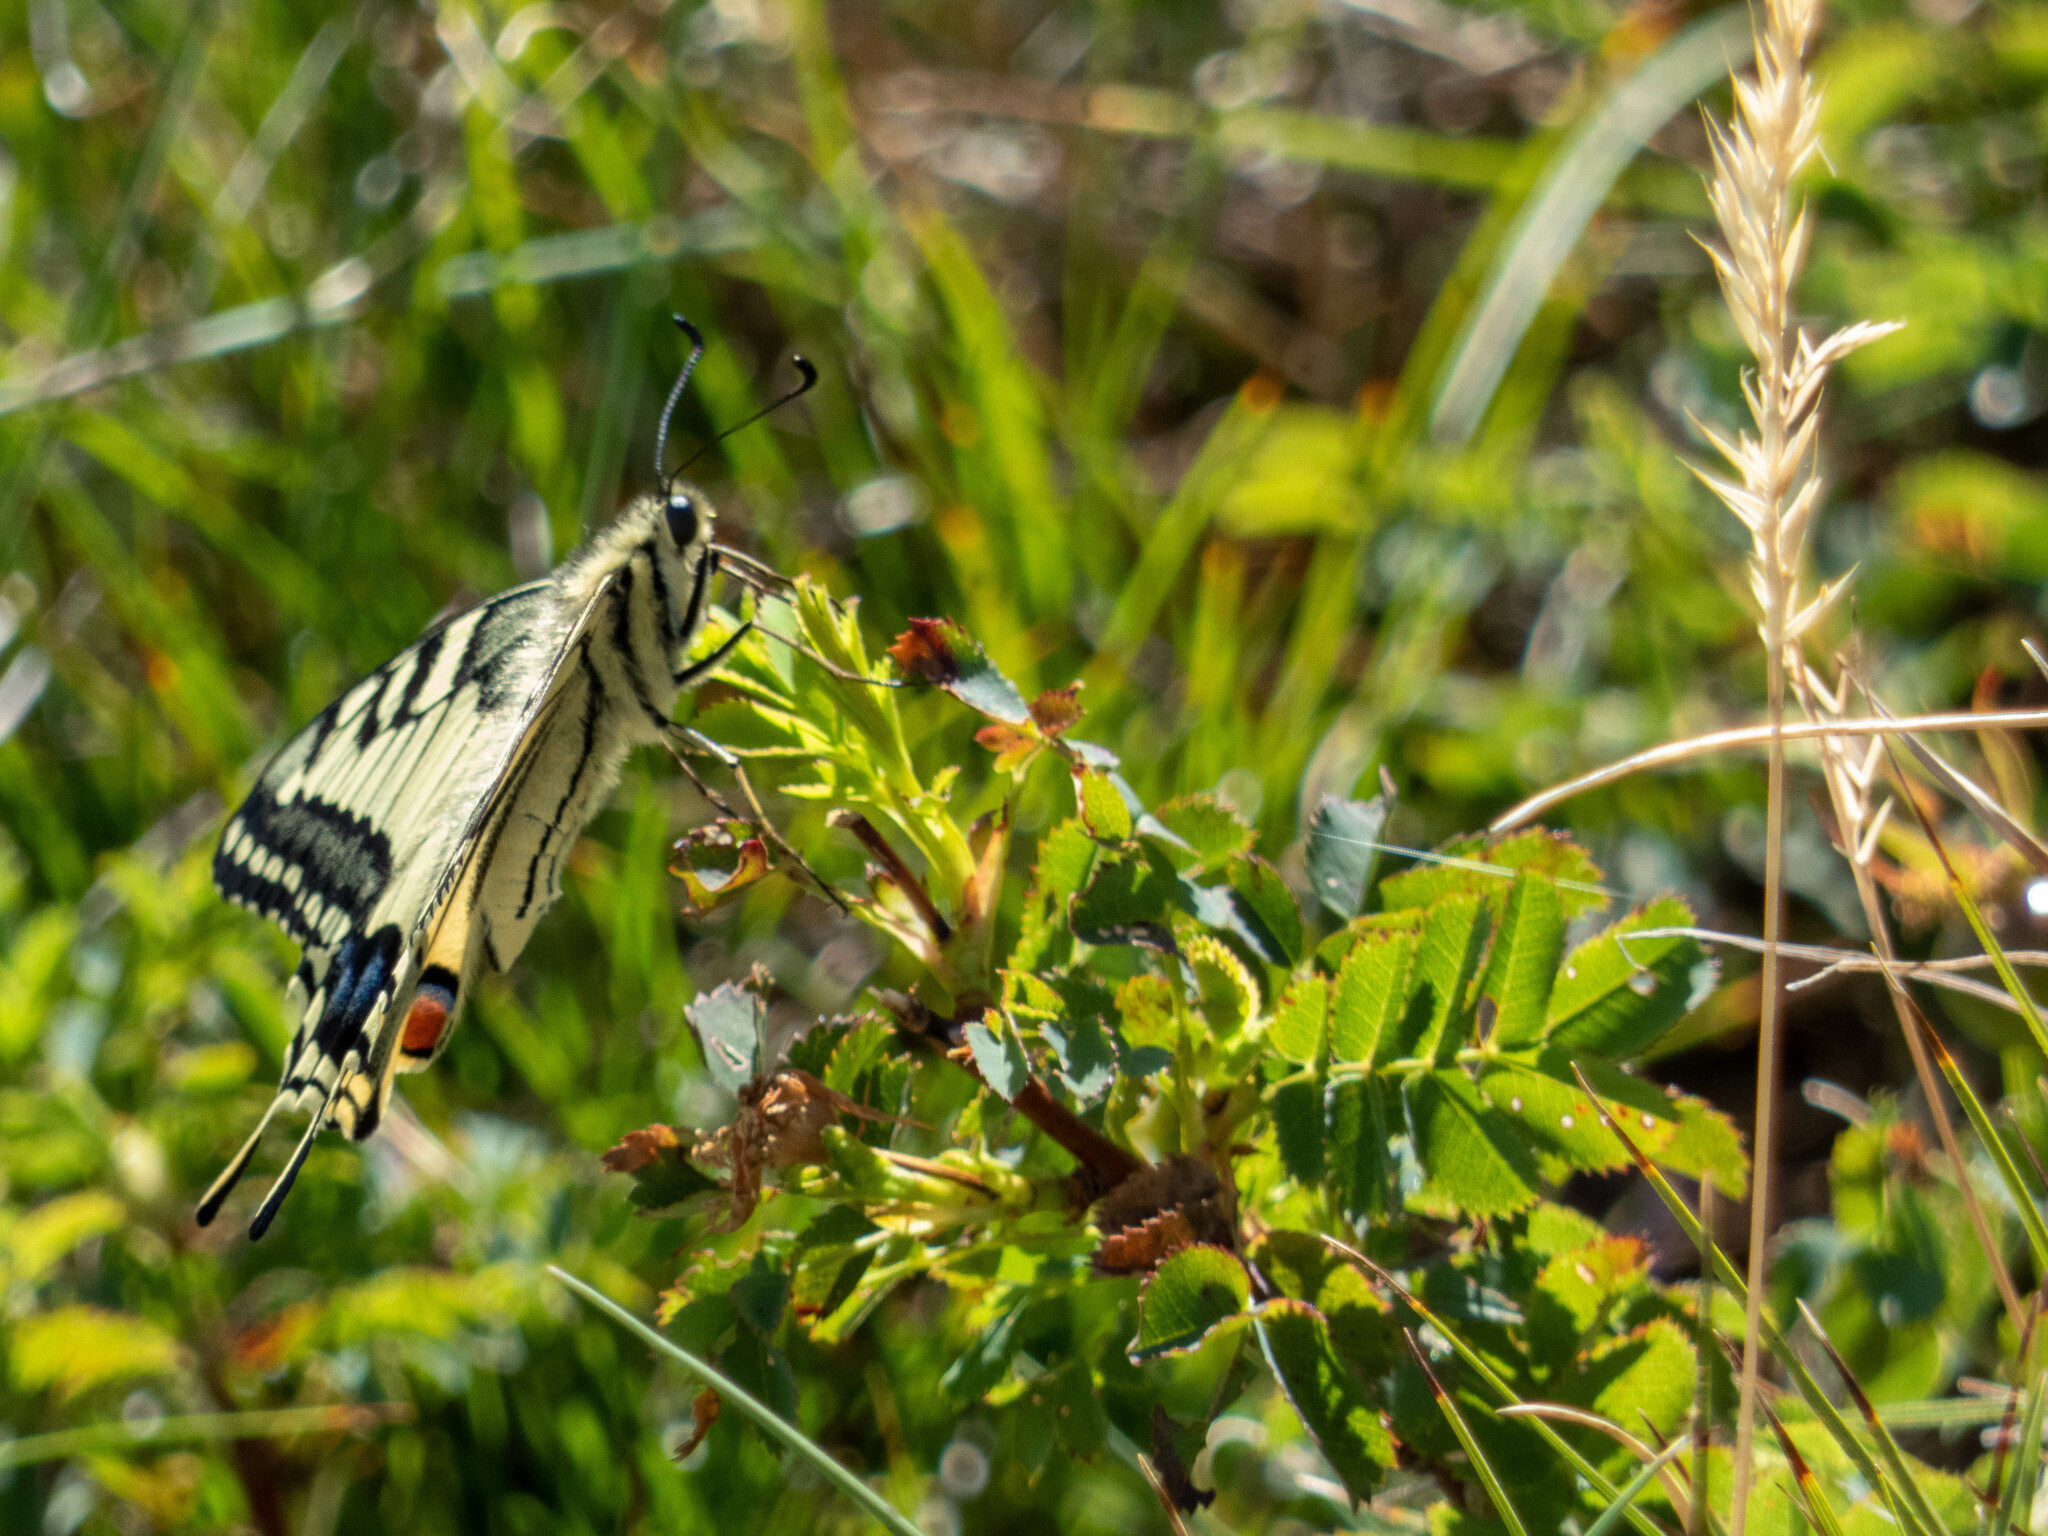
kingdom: Animalia
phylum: Arthropoda
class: Insecta
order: Lepidoptera
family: Papilionidae
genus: Papilio
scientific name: Papilio machaon
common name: Swallowtail
